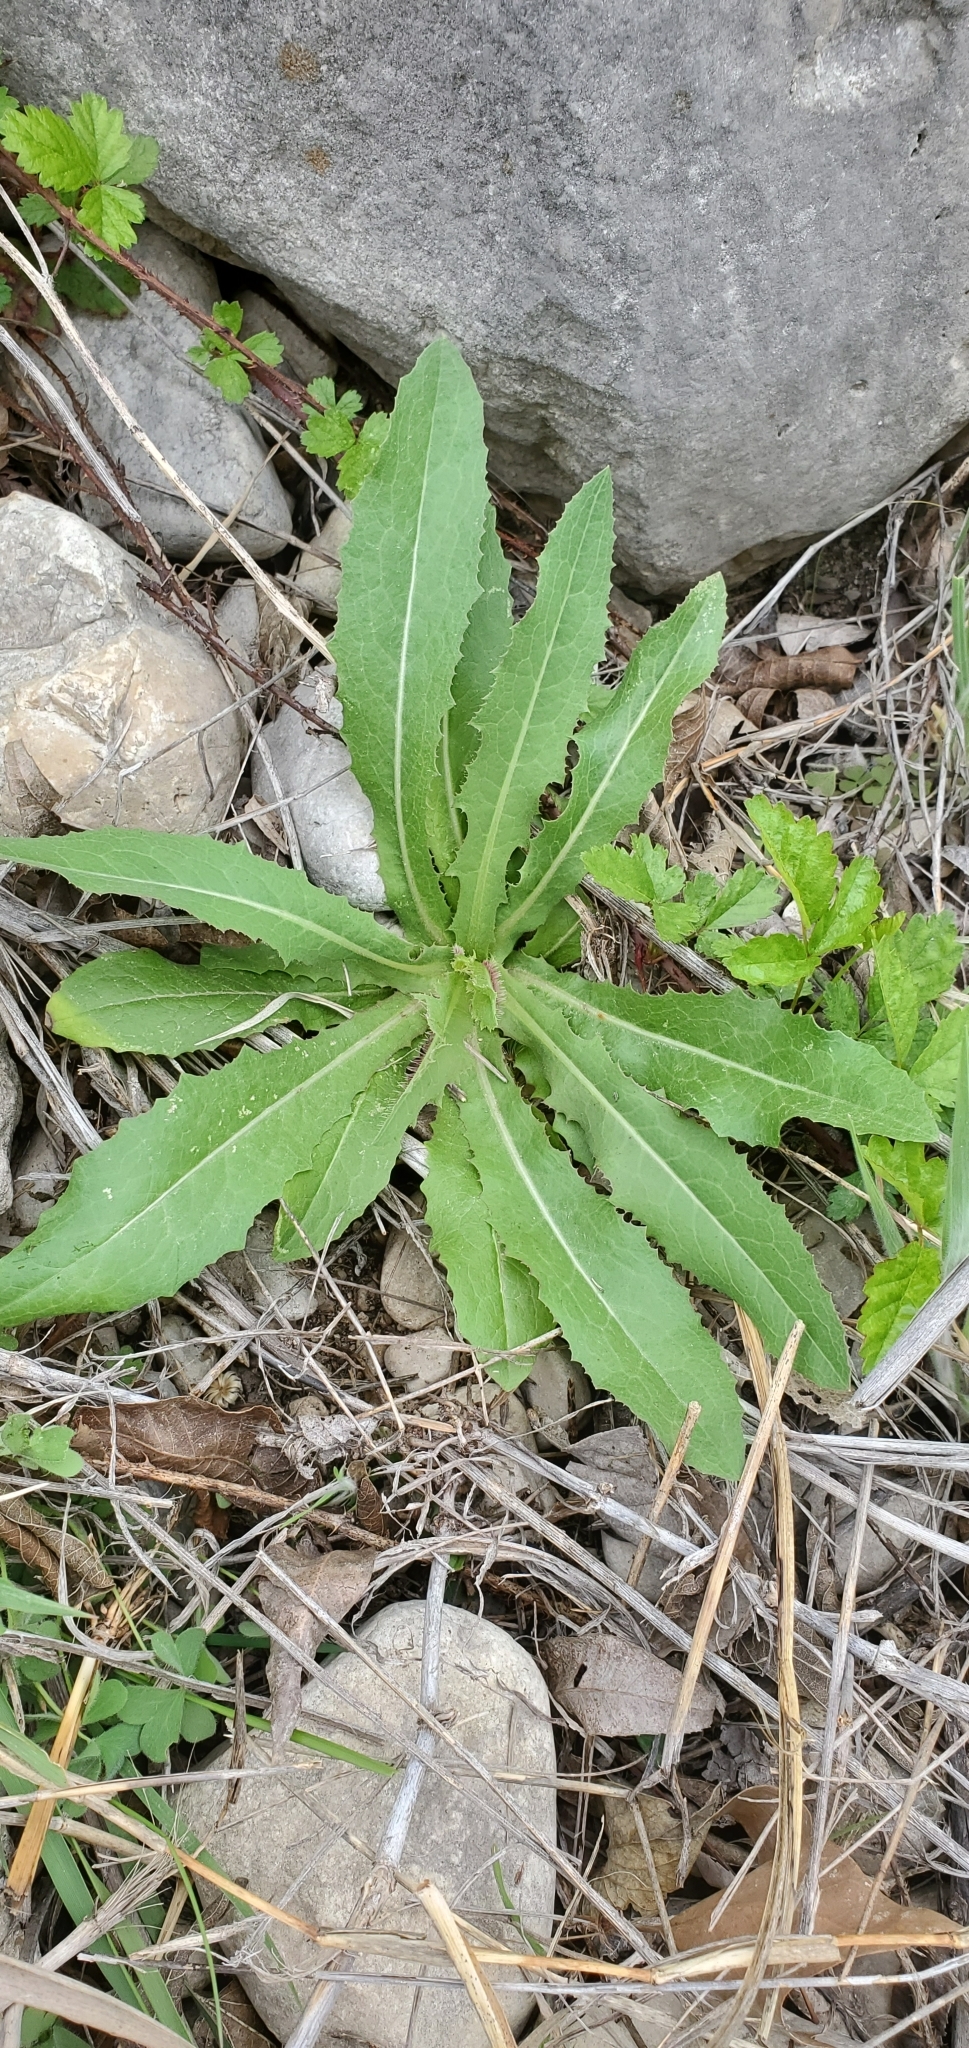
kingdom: Plantae
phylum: Tracheophyta
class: Magnoliopsida
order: Asterales
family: Asteraceae
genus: Lactuca
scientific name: Lactuca serriola
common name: Prickly lettuce
